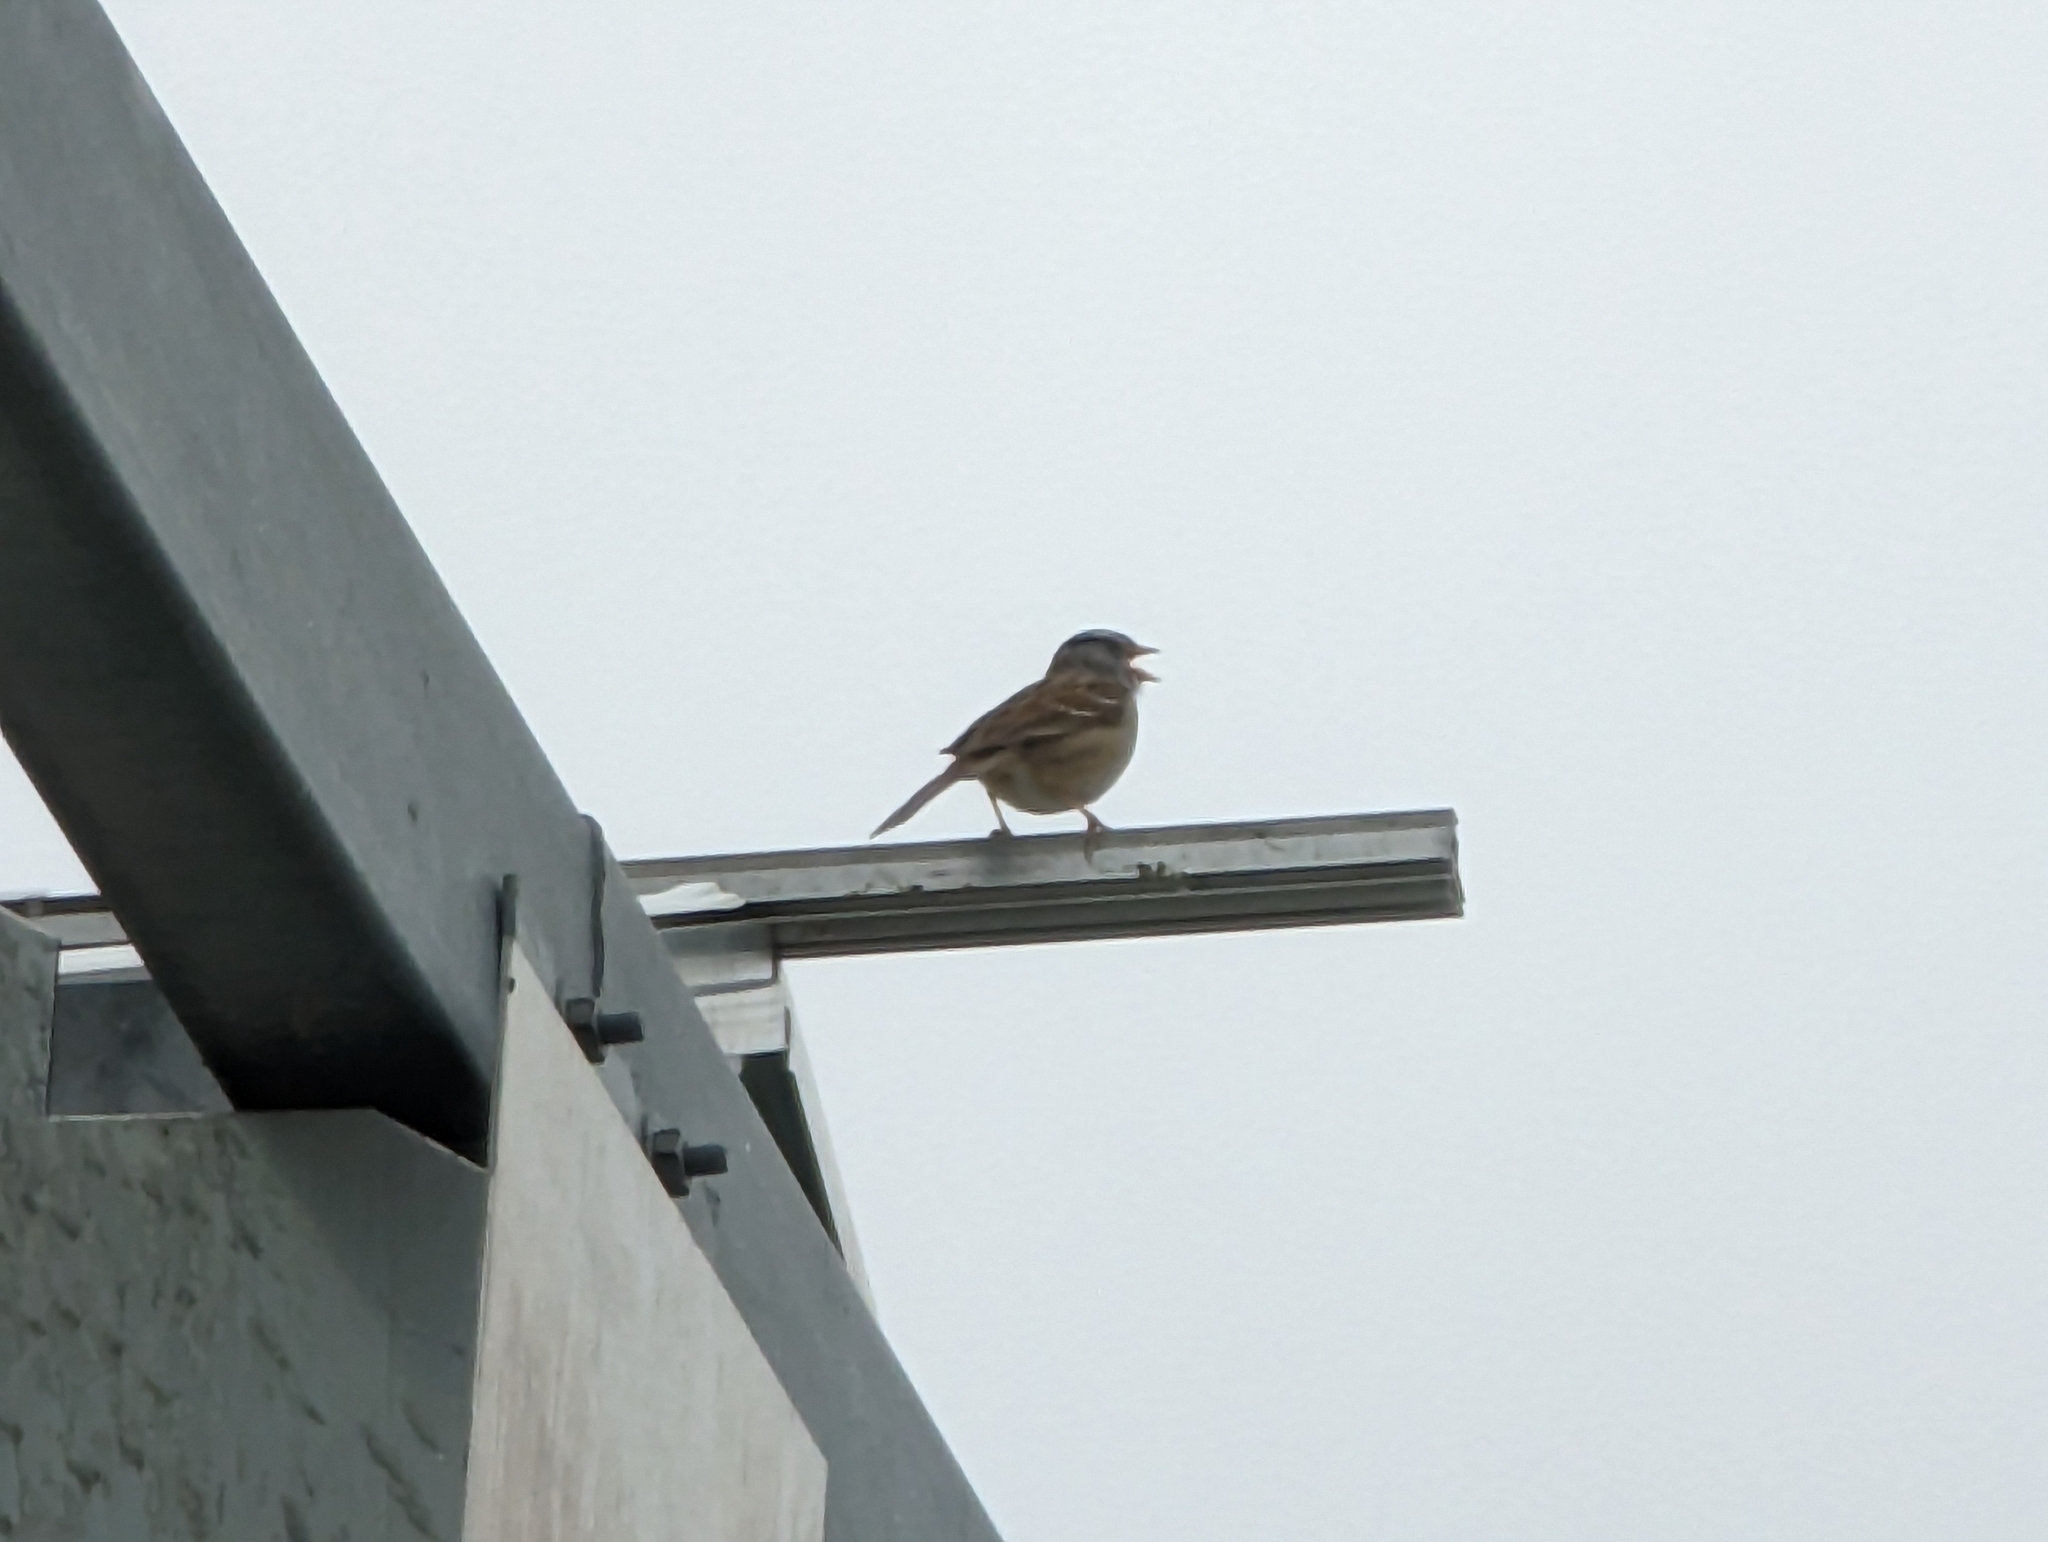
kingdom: Animalia
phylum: Chordata
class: Aves
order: Passeriformes
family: Passerellidae
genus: Zonotrichia
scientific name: Zonotrichia leucophrys
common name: White-crowned sparrow
